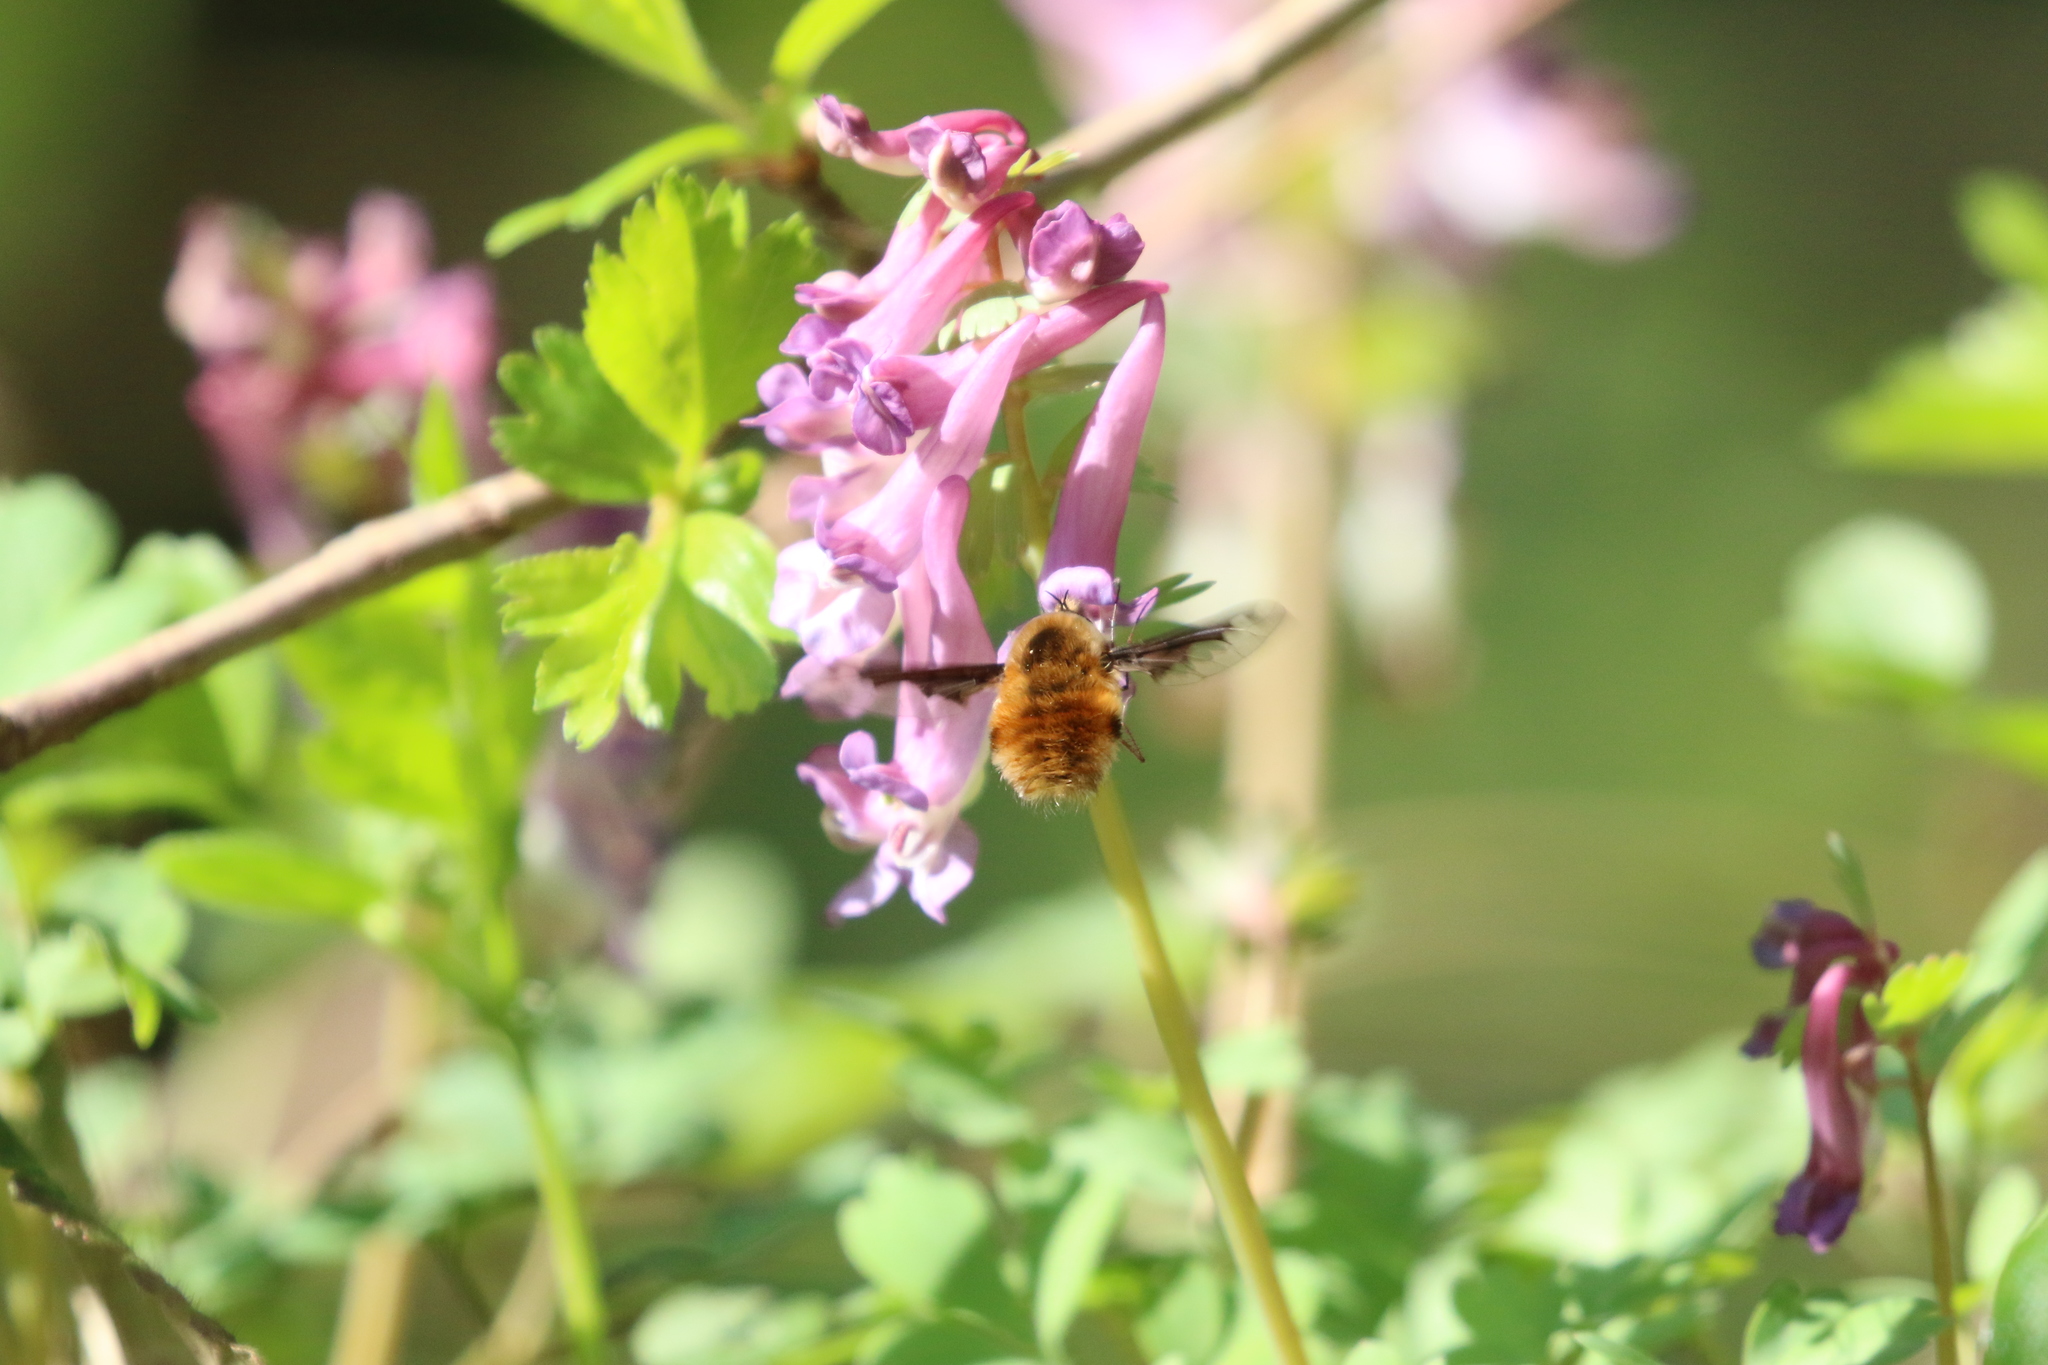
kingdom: Animalia
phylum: Arthropoda
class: Insecta
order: Diptera
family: Bombyliidae
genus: Bombylius
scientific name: Bombylius major
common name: Bee fly
